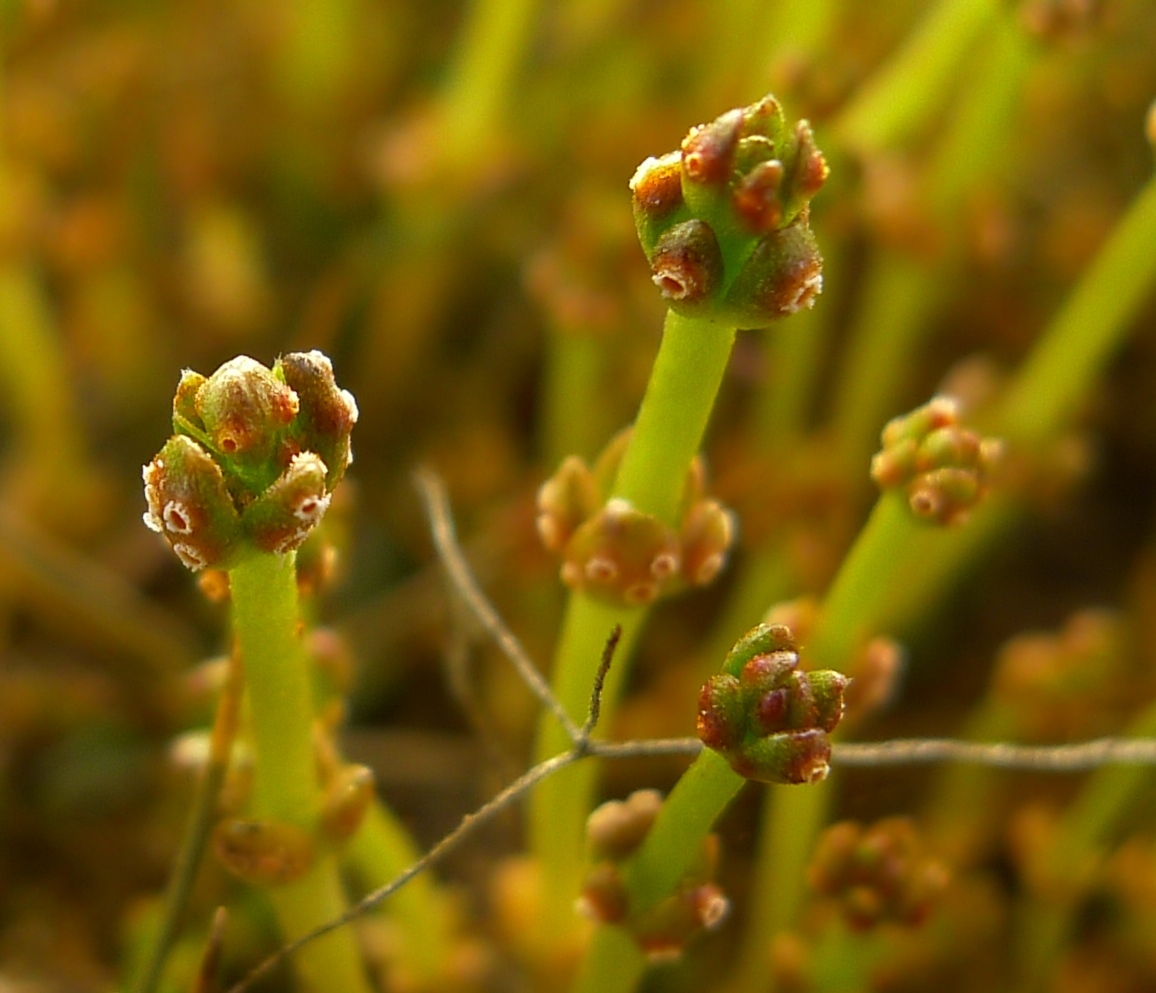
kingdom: Fungi
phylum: Basidiomycota
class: Pucciniomycetes
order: Pucciniales
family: Pucciniaceae
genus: Puccinia
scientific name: Puccinia punctata
